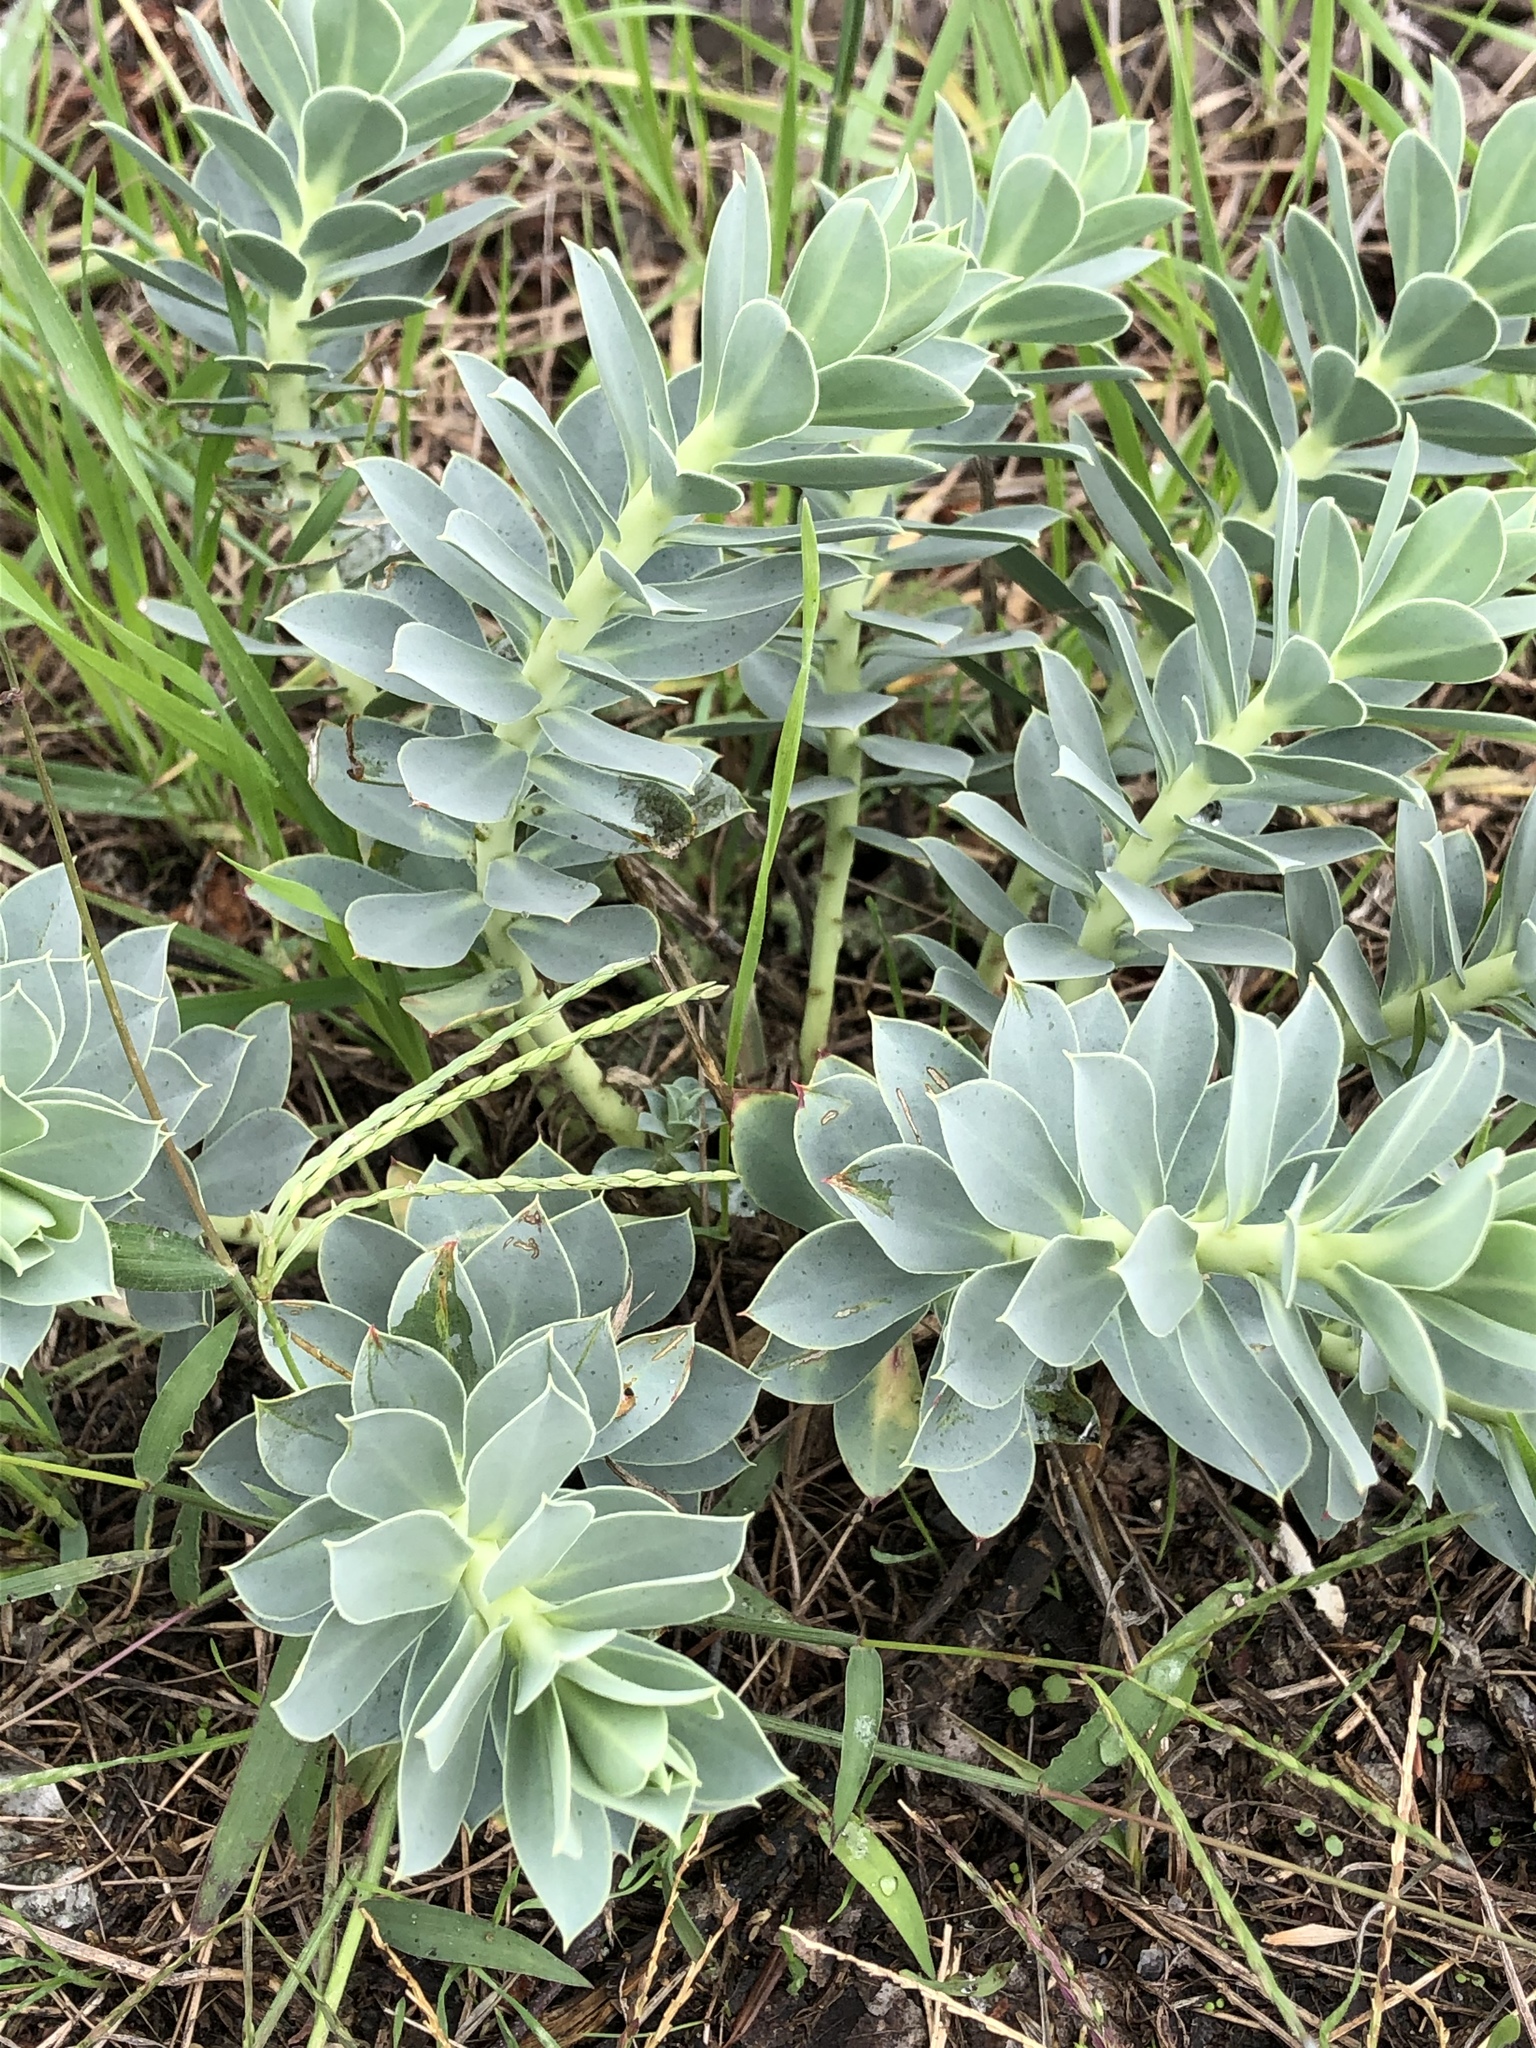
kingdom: Plantae
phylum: Tracheophyta
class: Magnoliopsida
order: Malpighiales
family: Euphorbiaceae
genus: Euphorbia
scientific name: Euphorbia myrsinites
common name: Myrtle spurge
